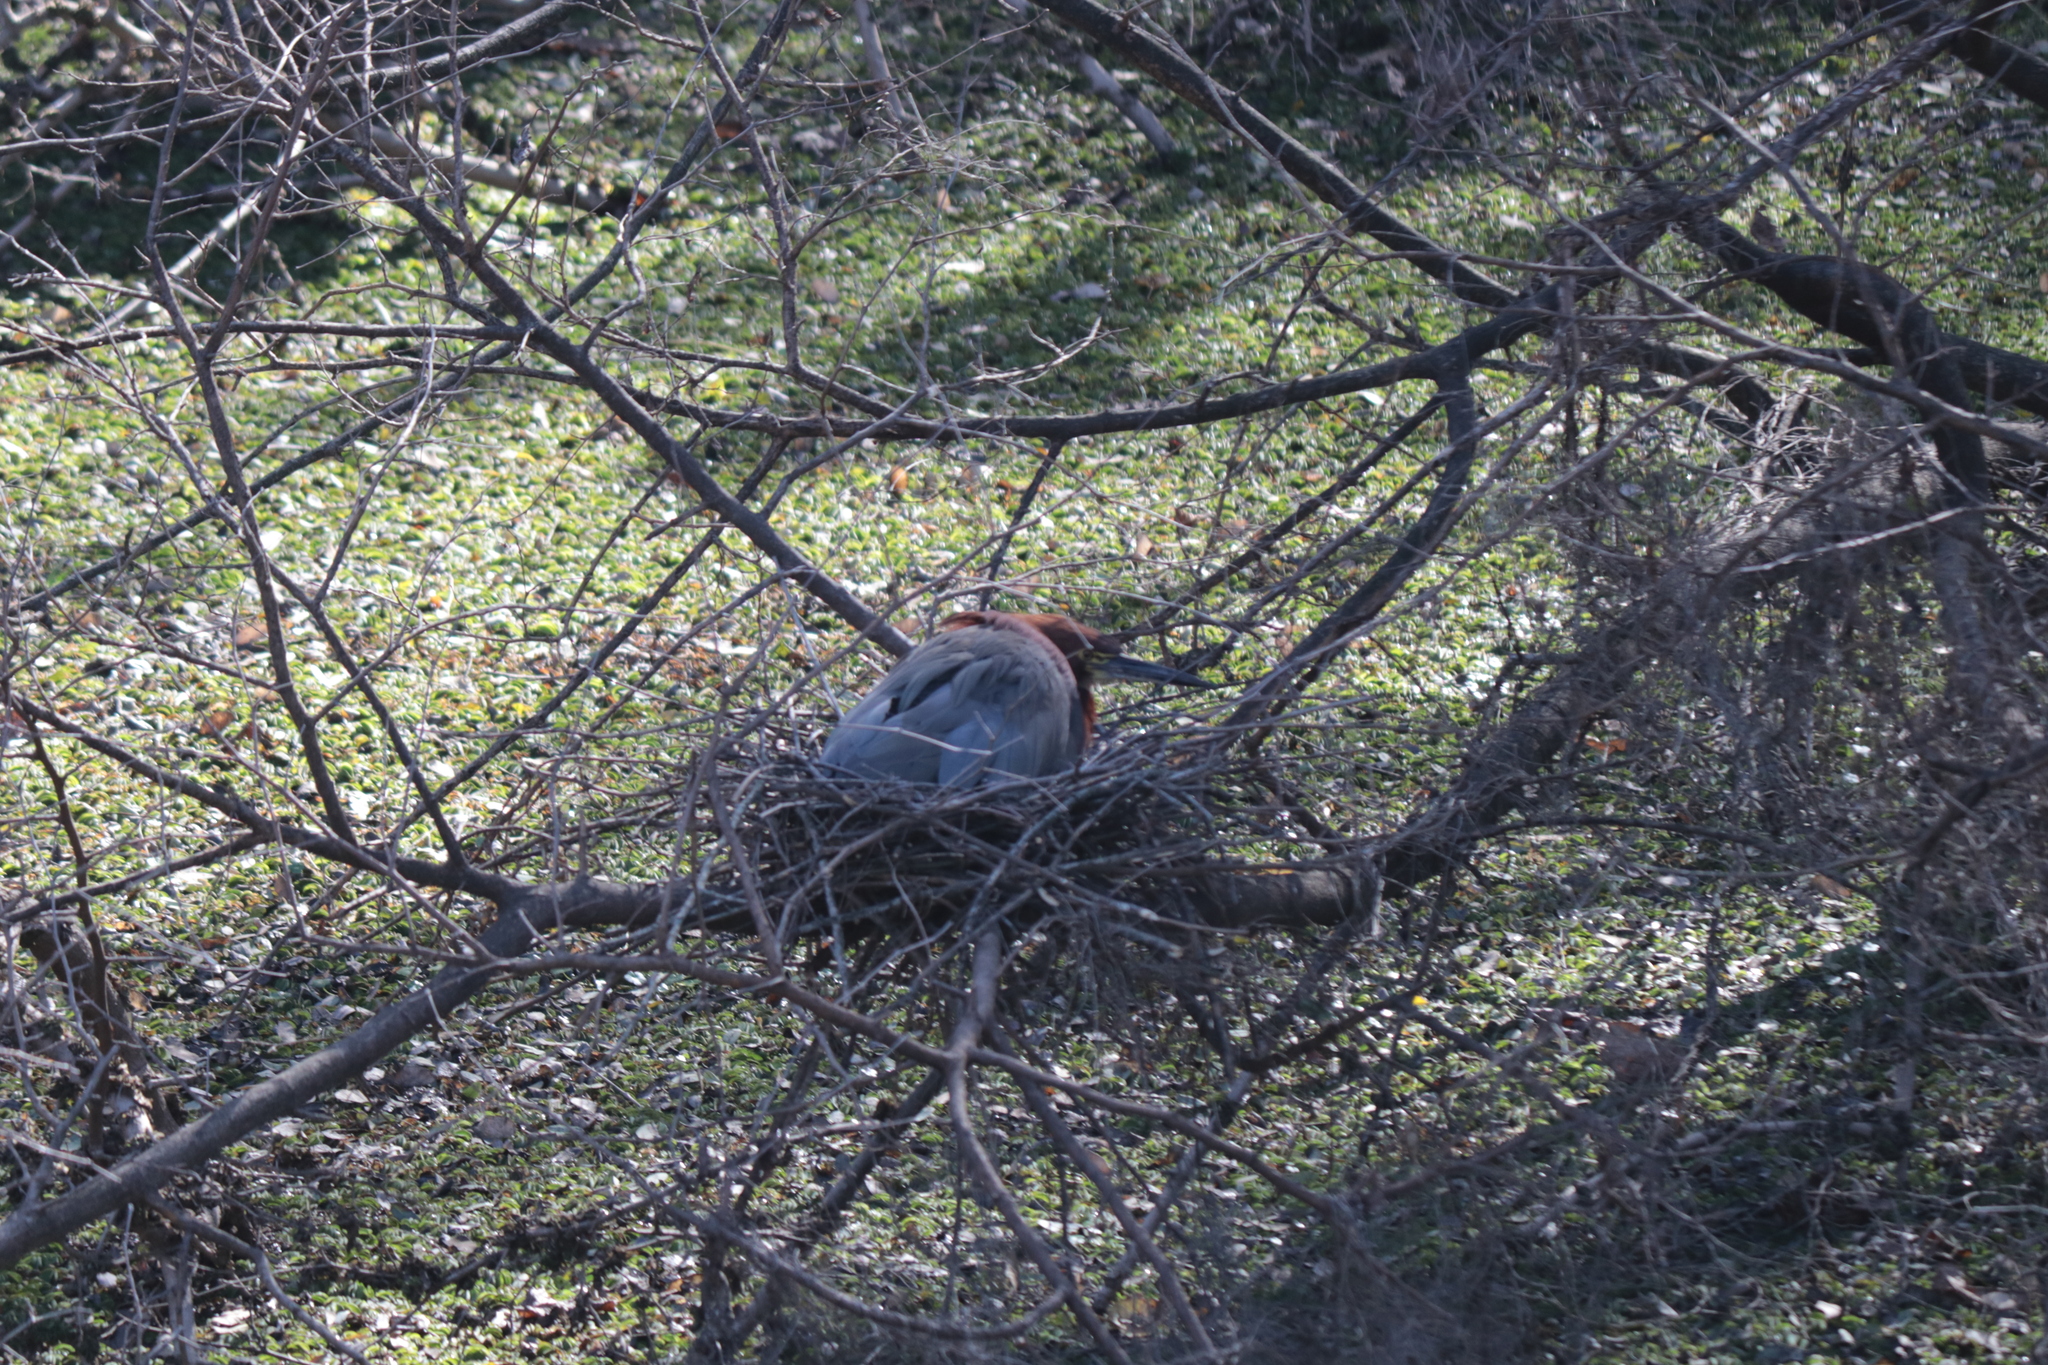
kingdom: Animalia
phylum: Chordata
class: Aves
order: Pelecaniformes
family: Ardeidae
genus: Tigrisoma
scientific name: Tigrisoma lineatum
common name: Rufescent tiger-heron
